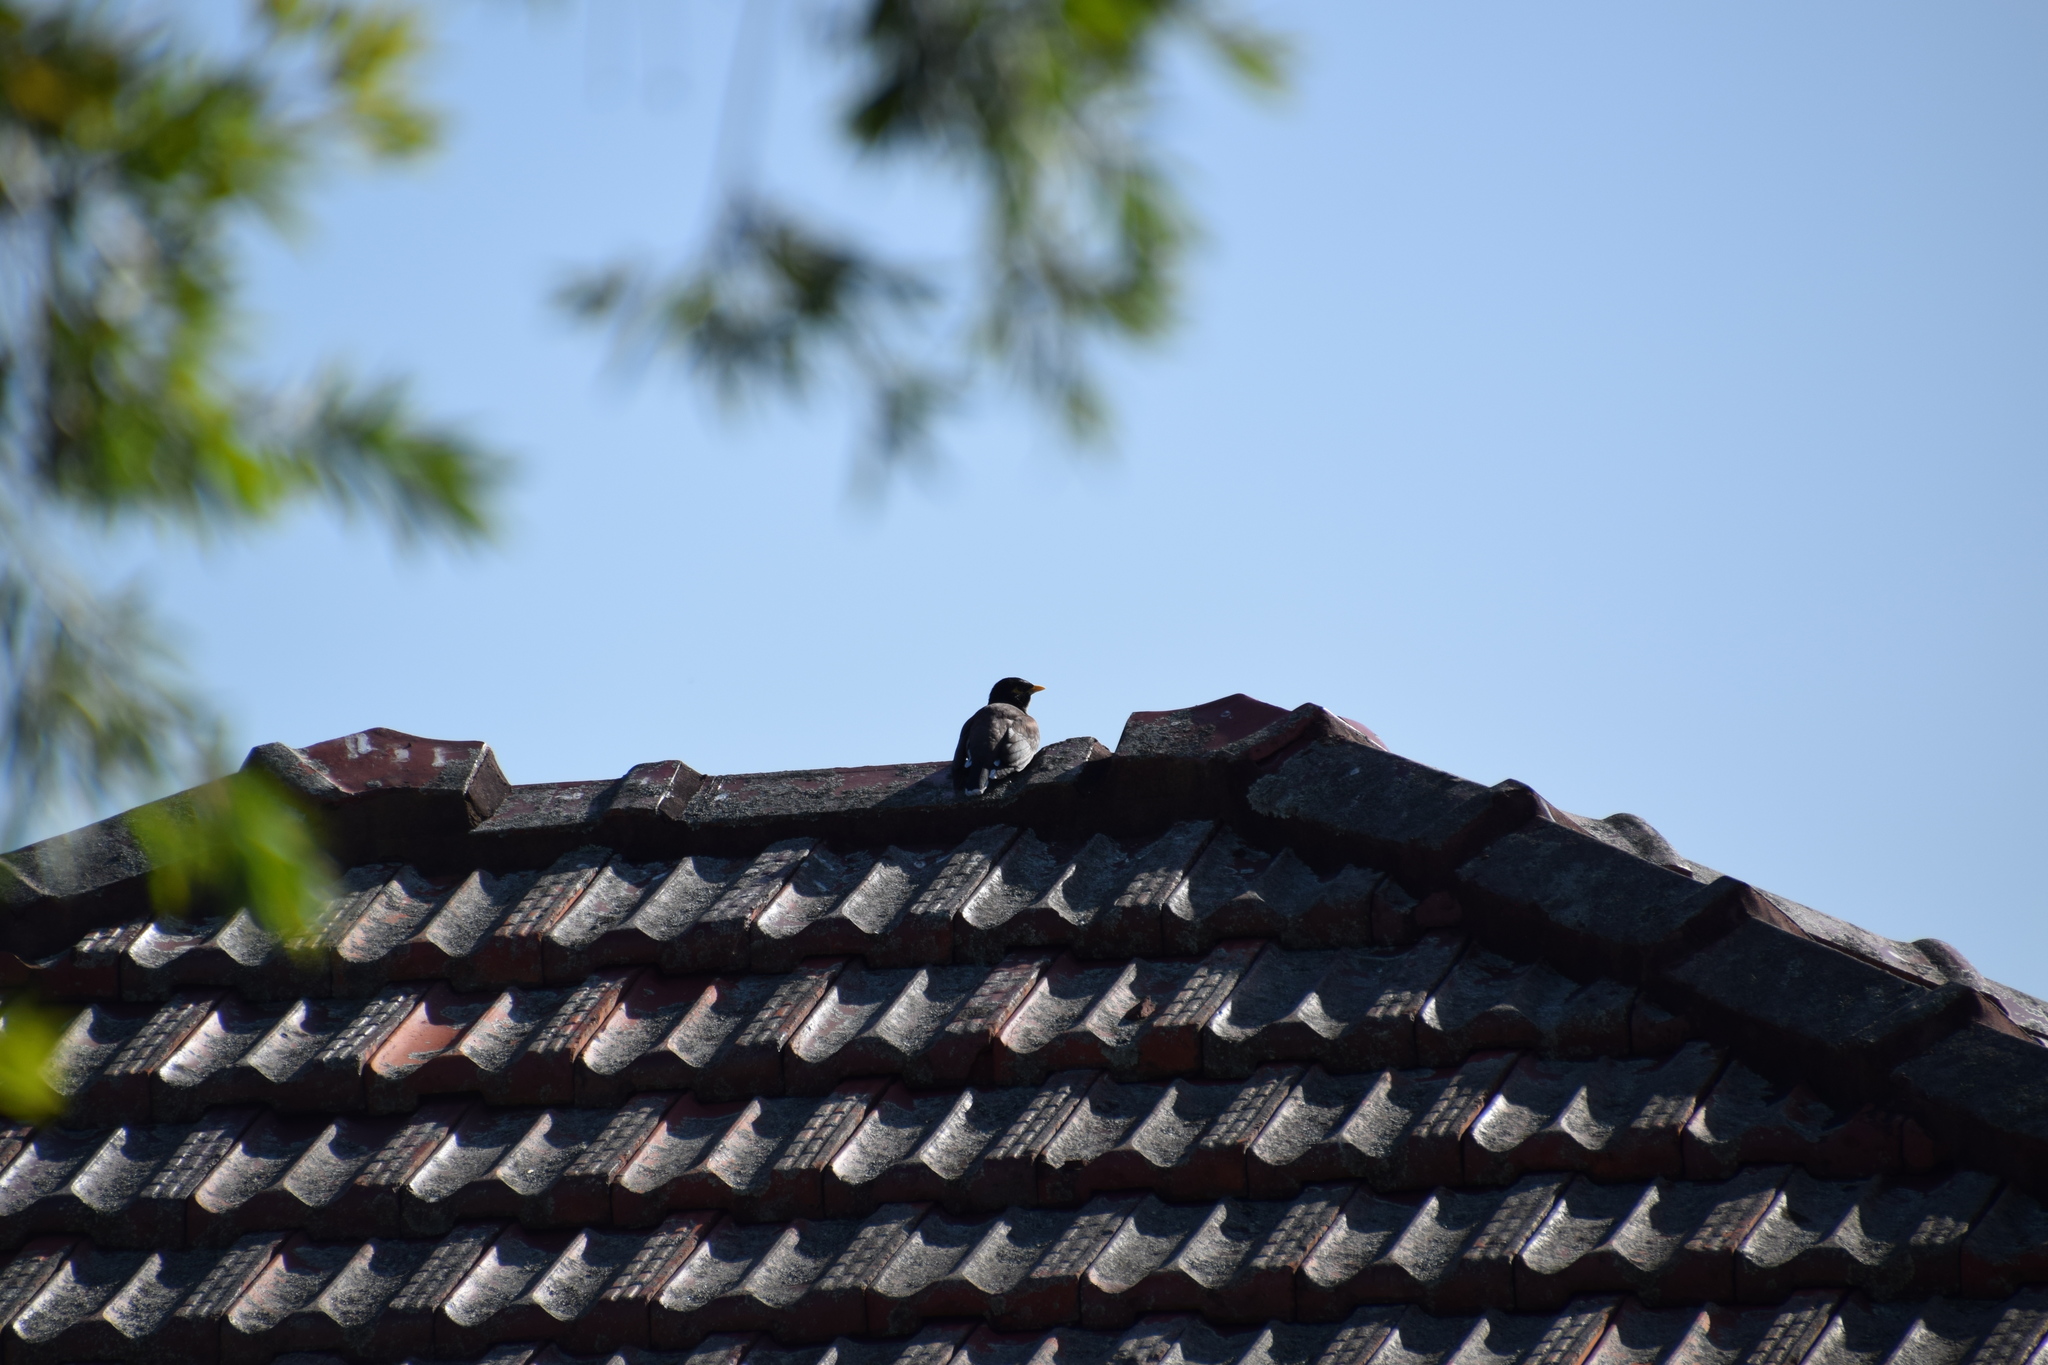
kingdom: Animalia
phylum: Chordata
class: Aves
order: Passeriformes
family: Sturnidae
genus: Acridotheres
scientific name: Acridotheres tristis
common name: Common myna
